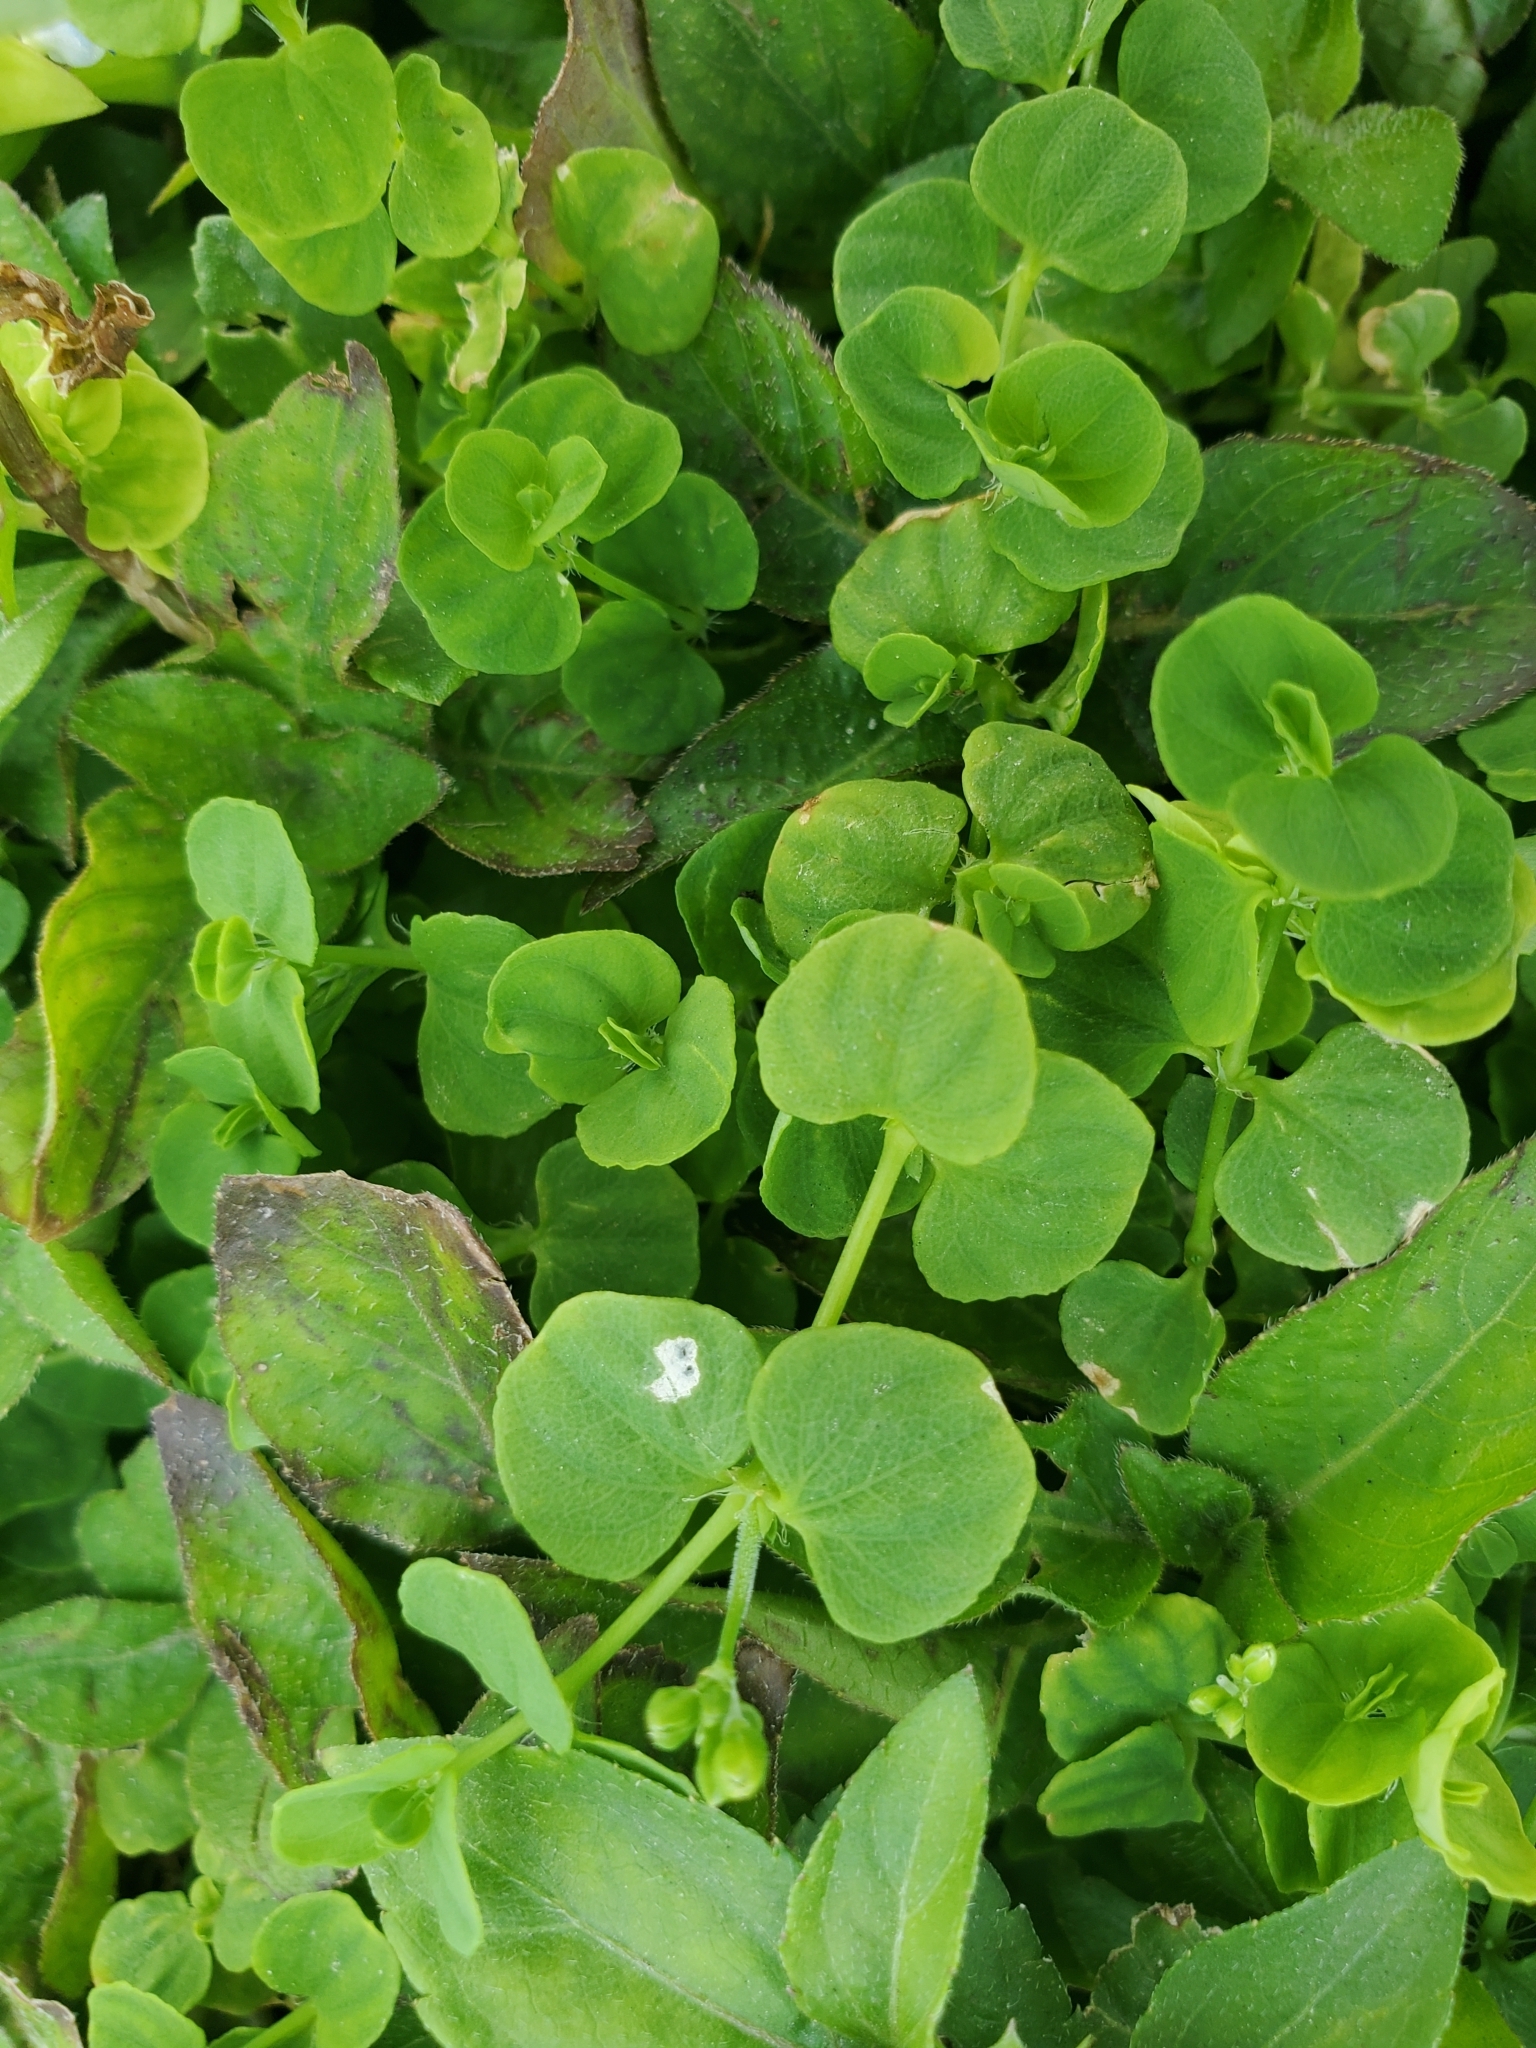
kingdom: Plantae
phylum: Tracheophyta
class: Magnoliopsida
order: Caryophyllales
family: Caryophyllaceae
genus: Drymaria
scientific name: Drymaria cordata
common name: Whitesnow
